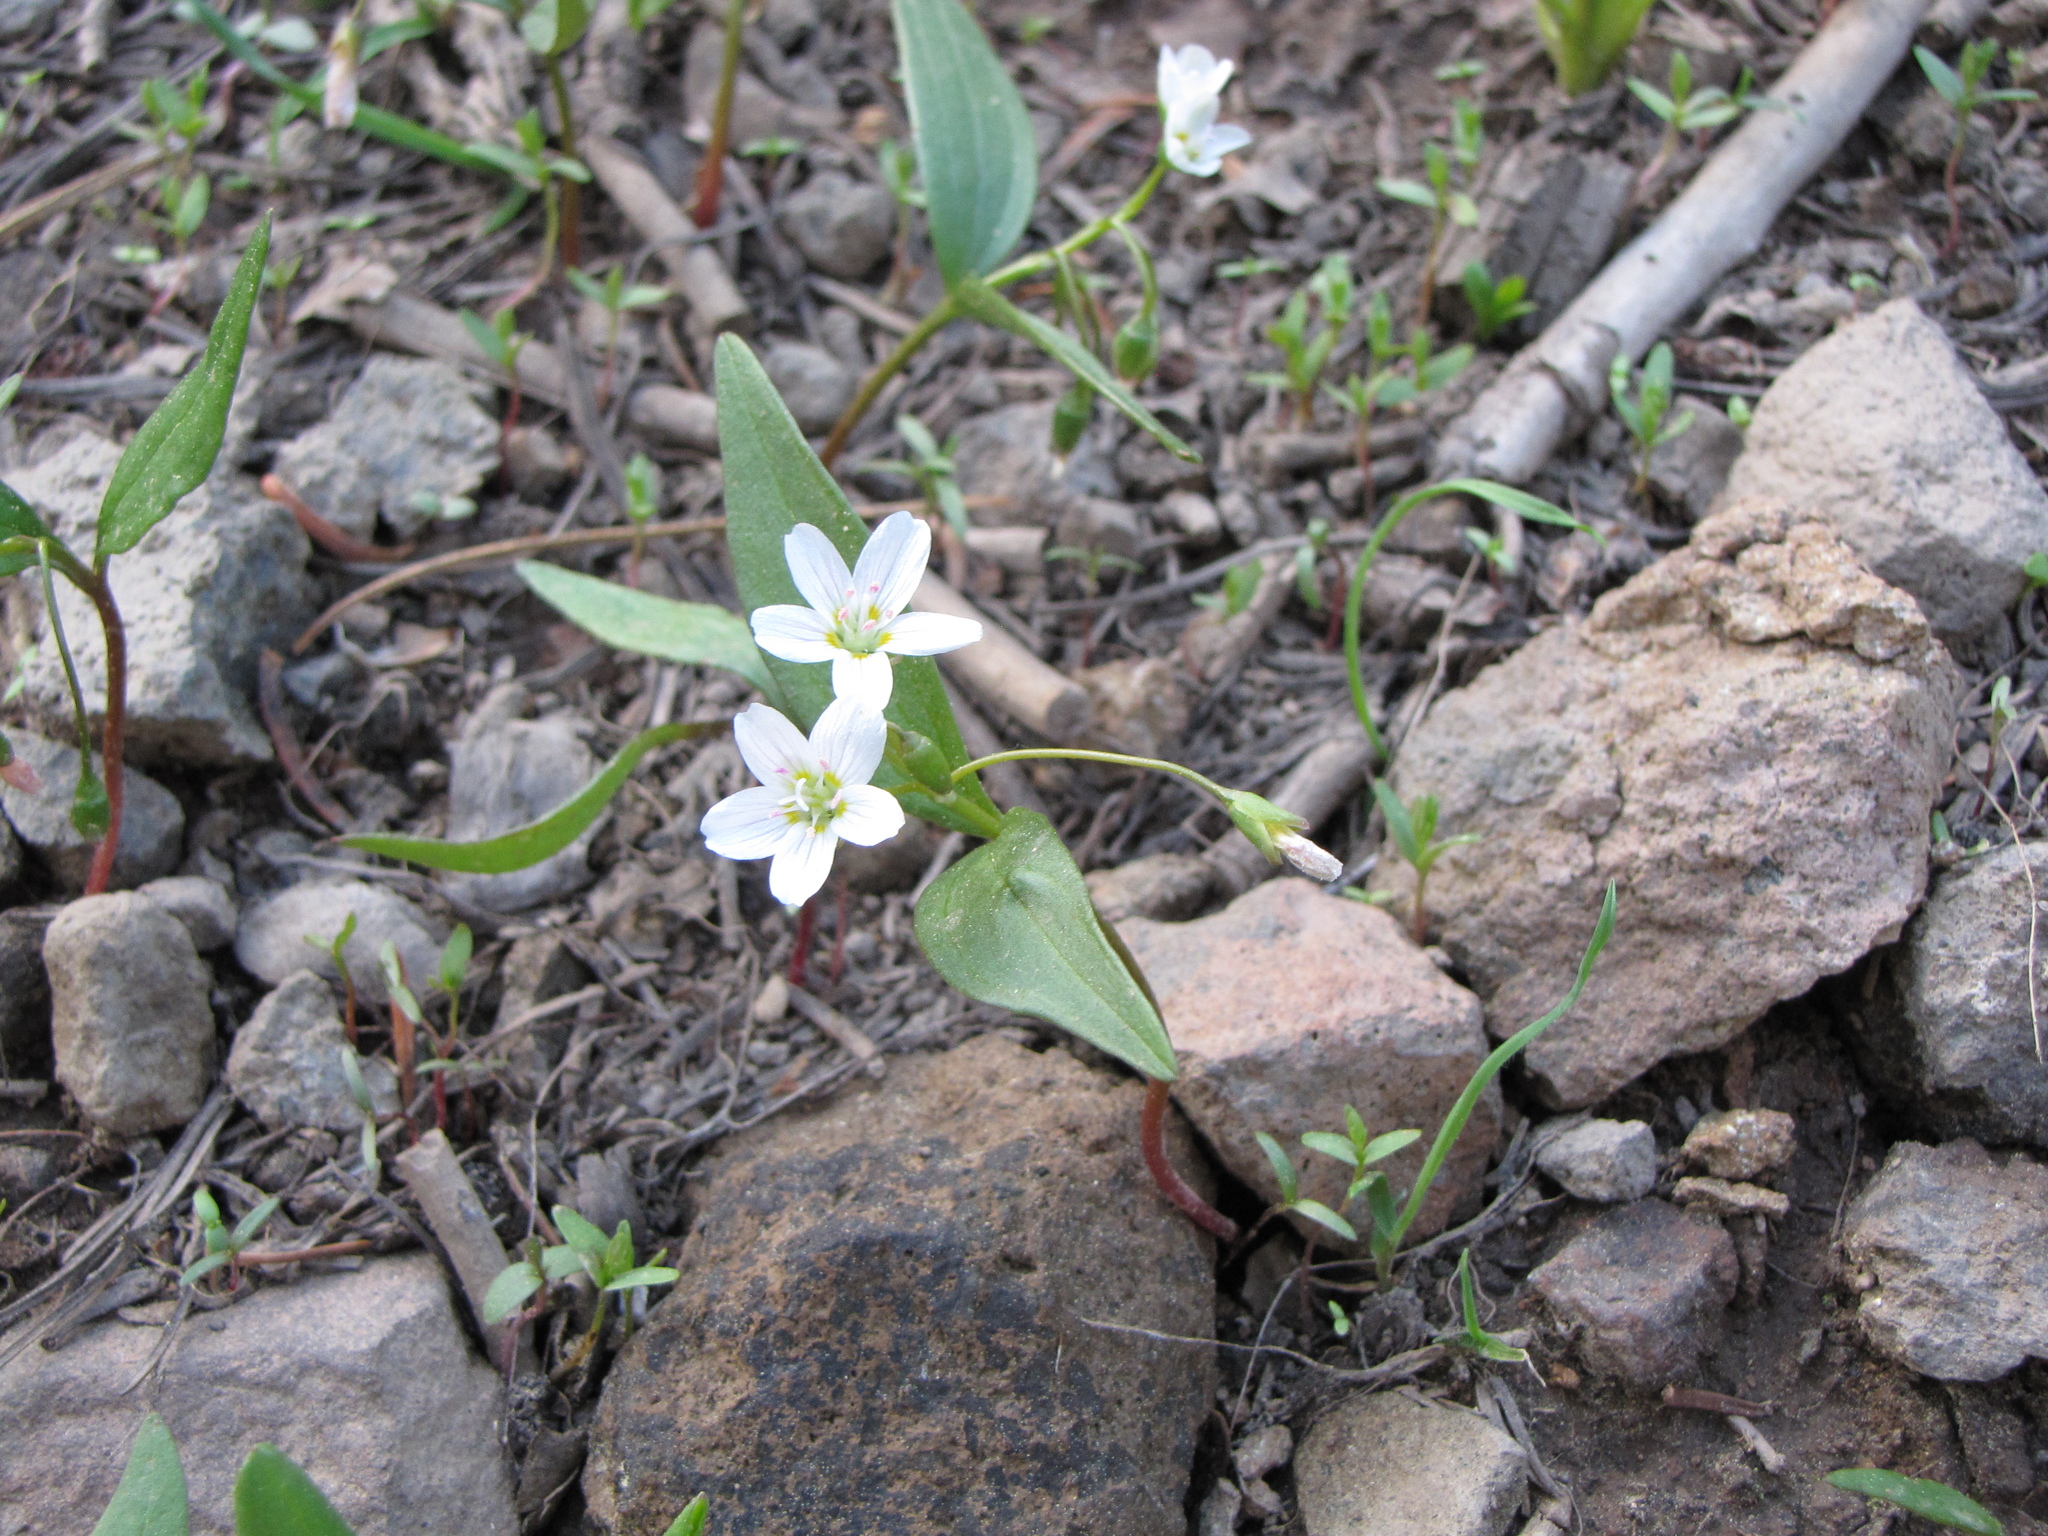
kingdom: Plantae
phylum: Tracheophyta
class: Magnoliopsida
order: Caryophyllales
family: Montiaceae
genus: Claytonia
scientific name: Claytonia lanceolata
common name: Western spring-beauty
